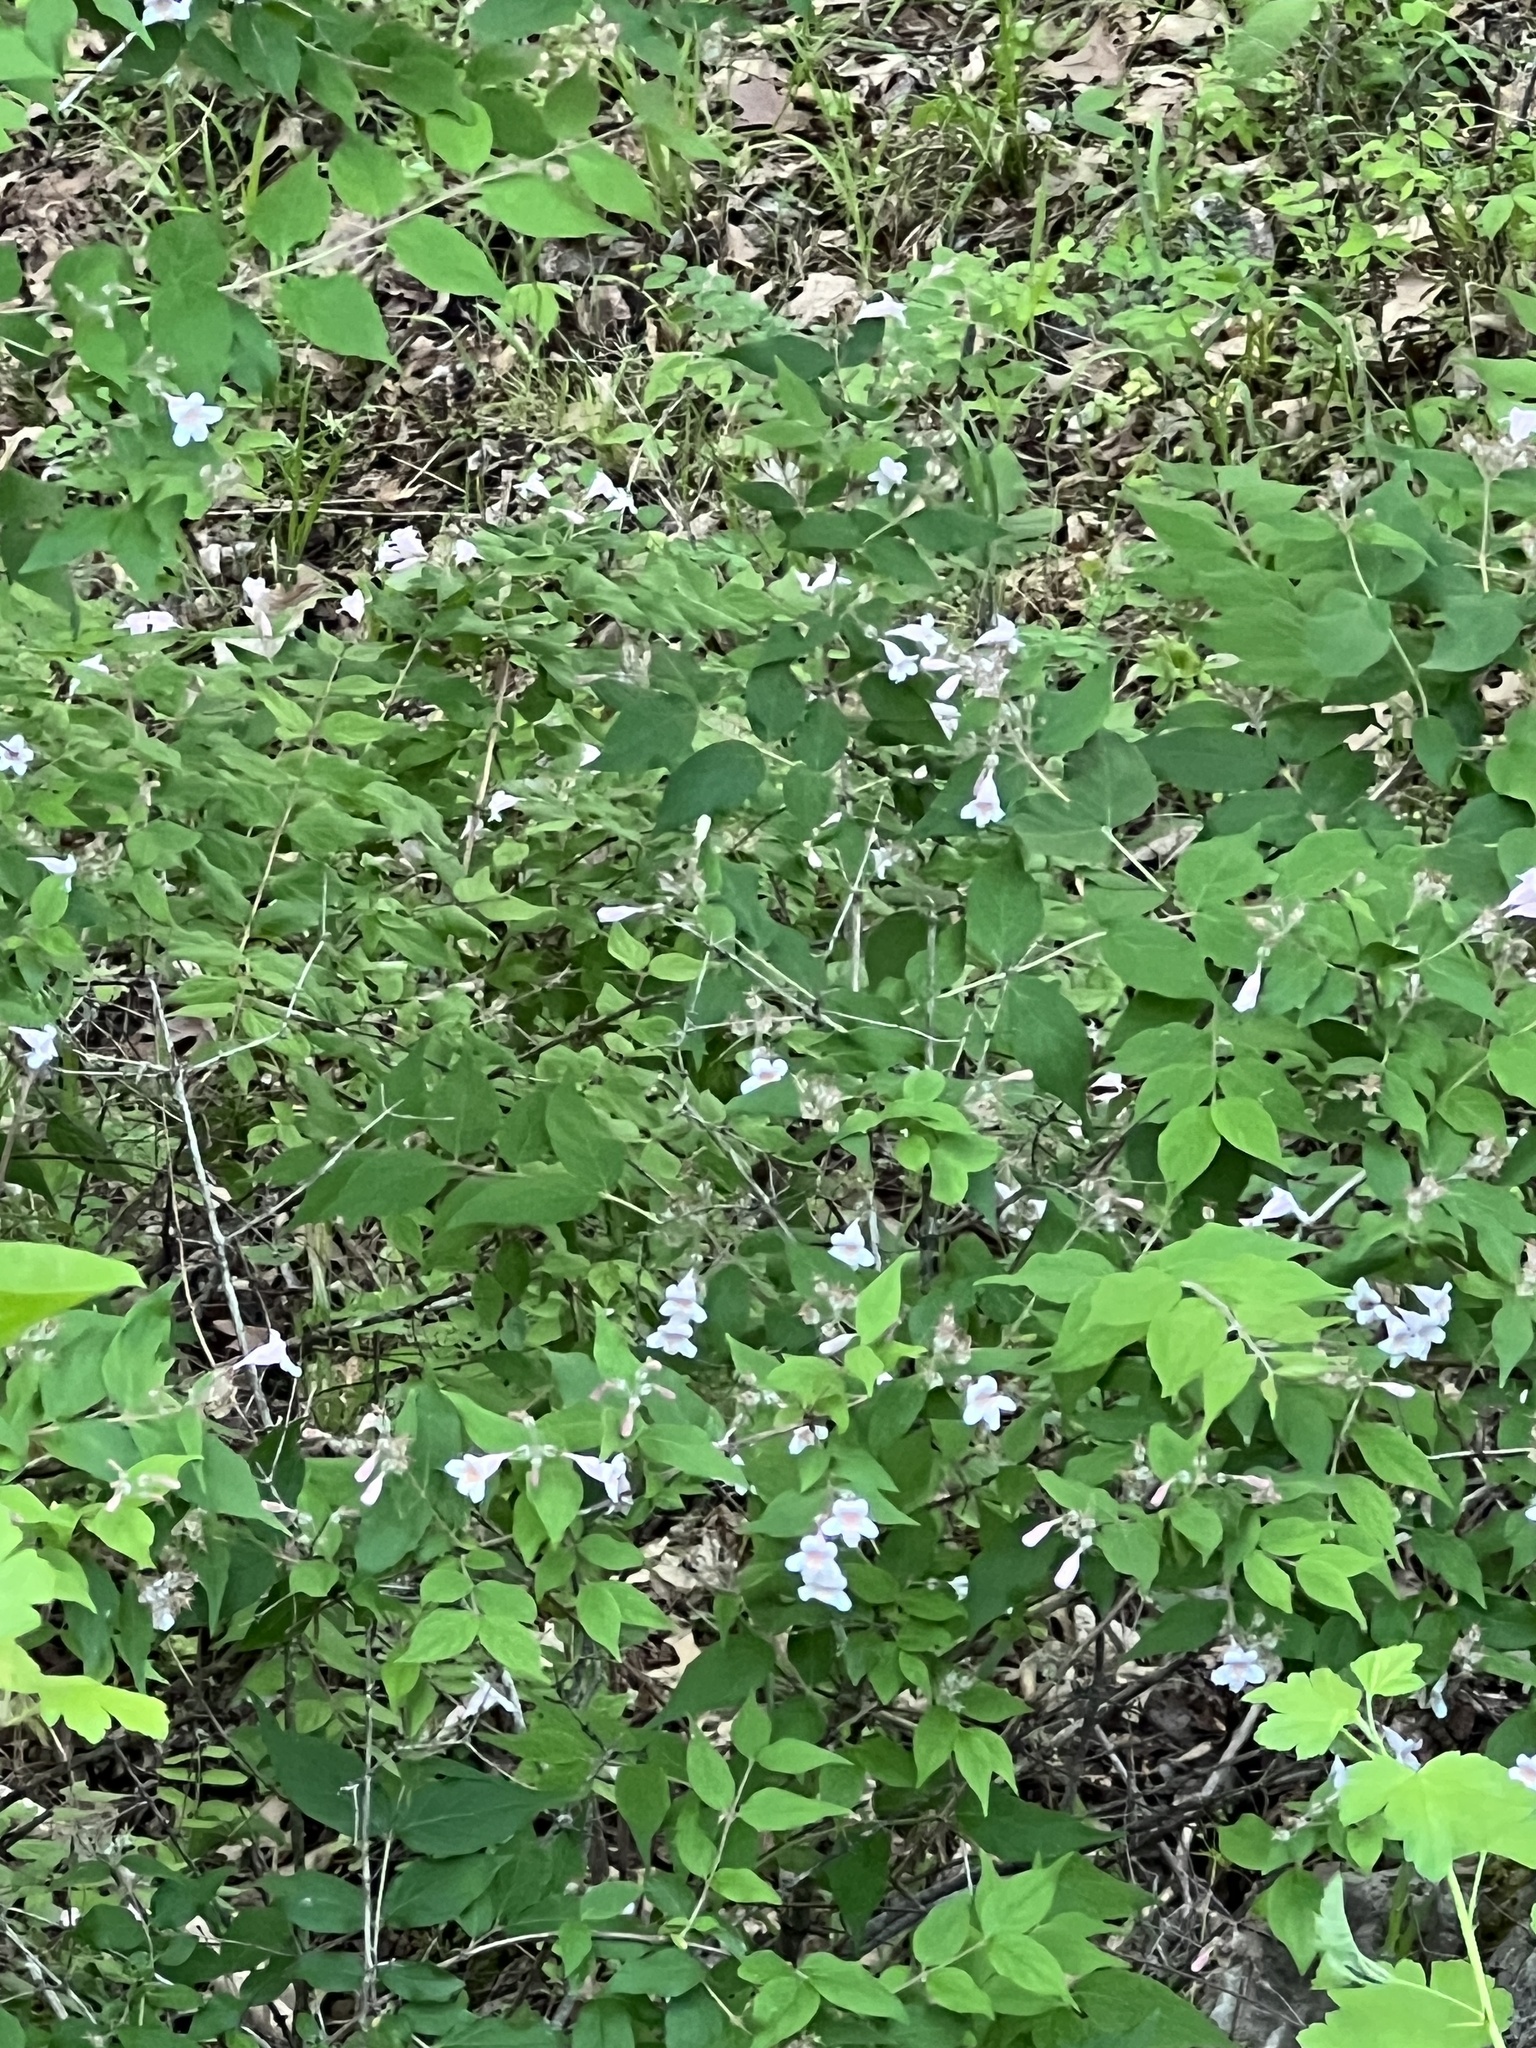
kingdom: Plantae
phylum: Tracheophyta
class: Magnoliopsida
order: Dipsacales
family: Caprifoliaceae
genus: Kolkwitzia
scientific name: Kolkwitzia amabilis
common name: Beautybush
